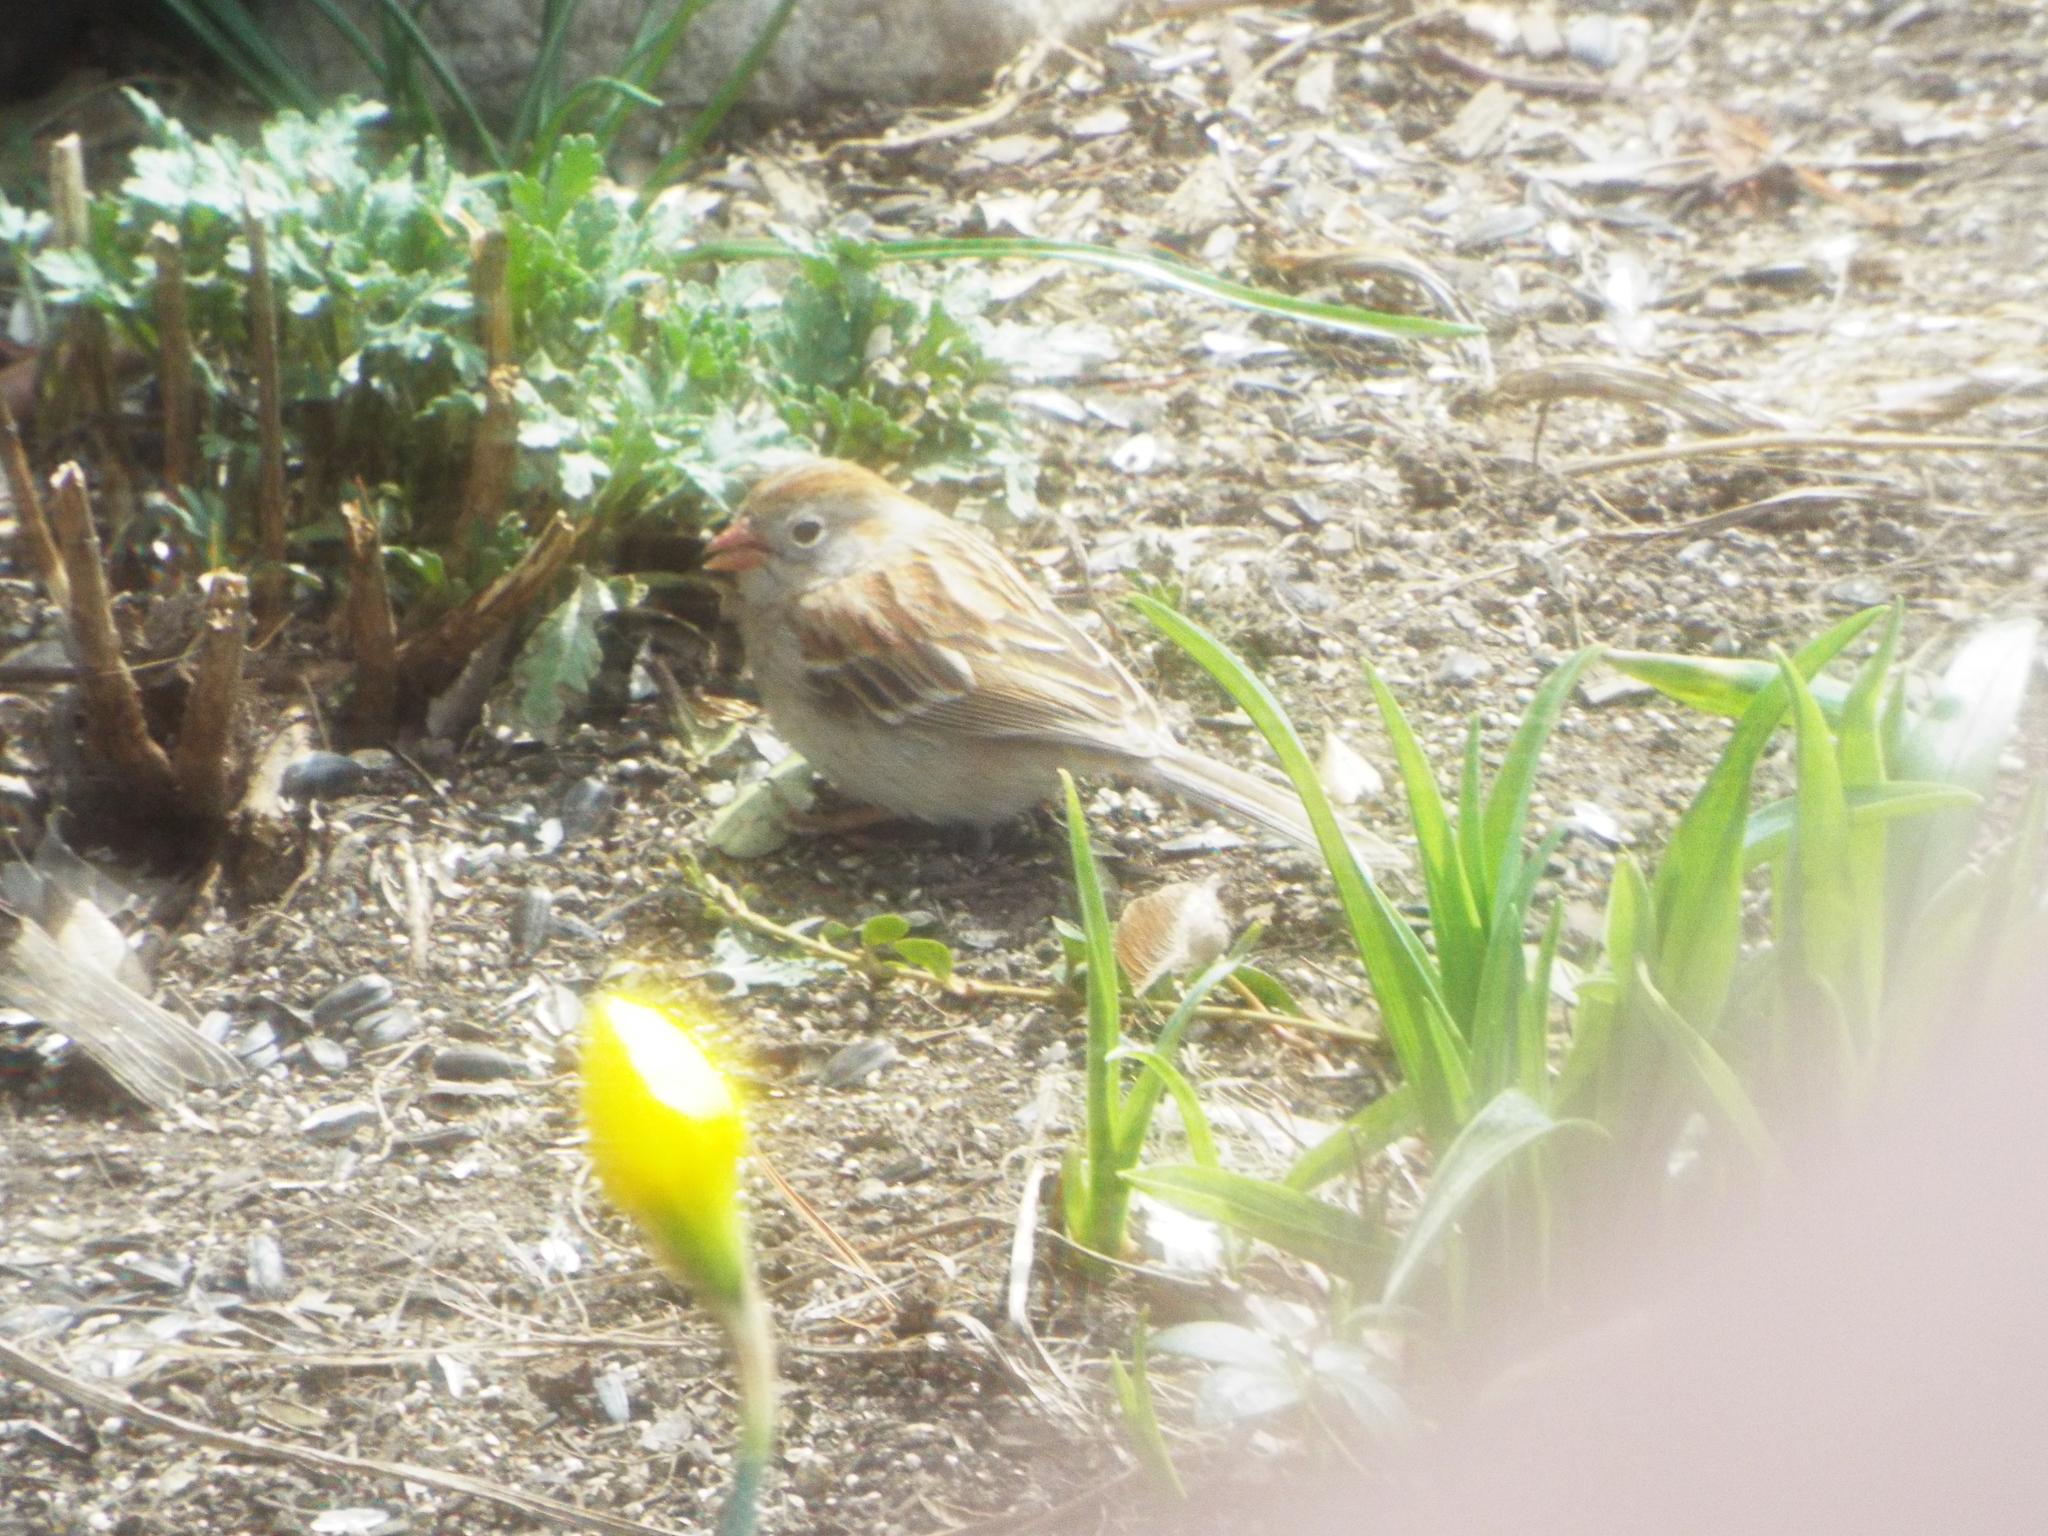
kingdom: Animalia
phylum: Chordata
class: Aves
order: Passeriformes
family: Passerellidae
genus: Spizella
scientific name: Spizella pusilla
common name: Field sparrow
